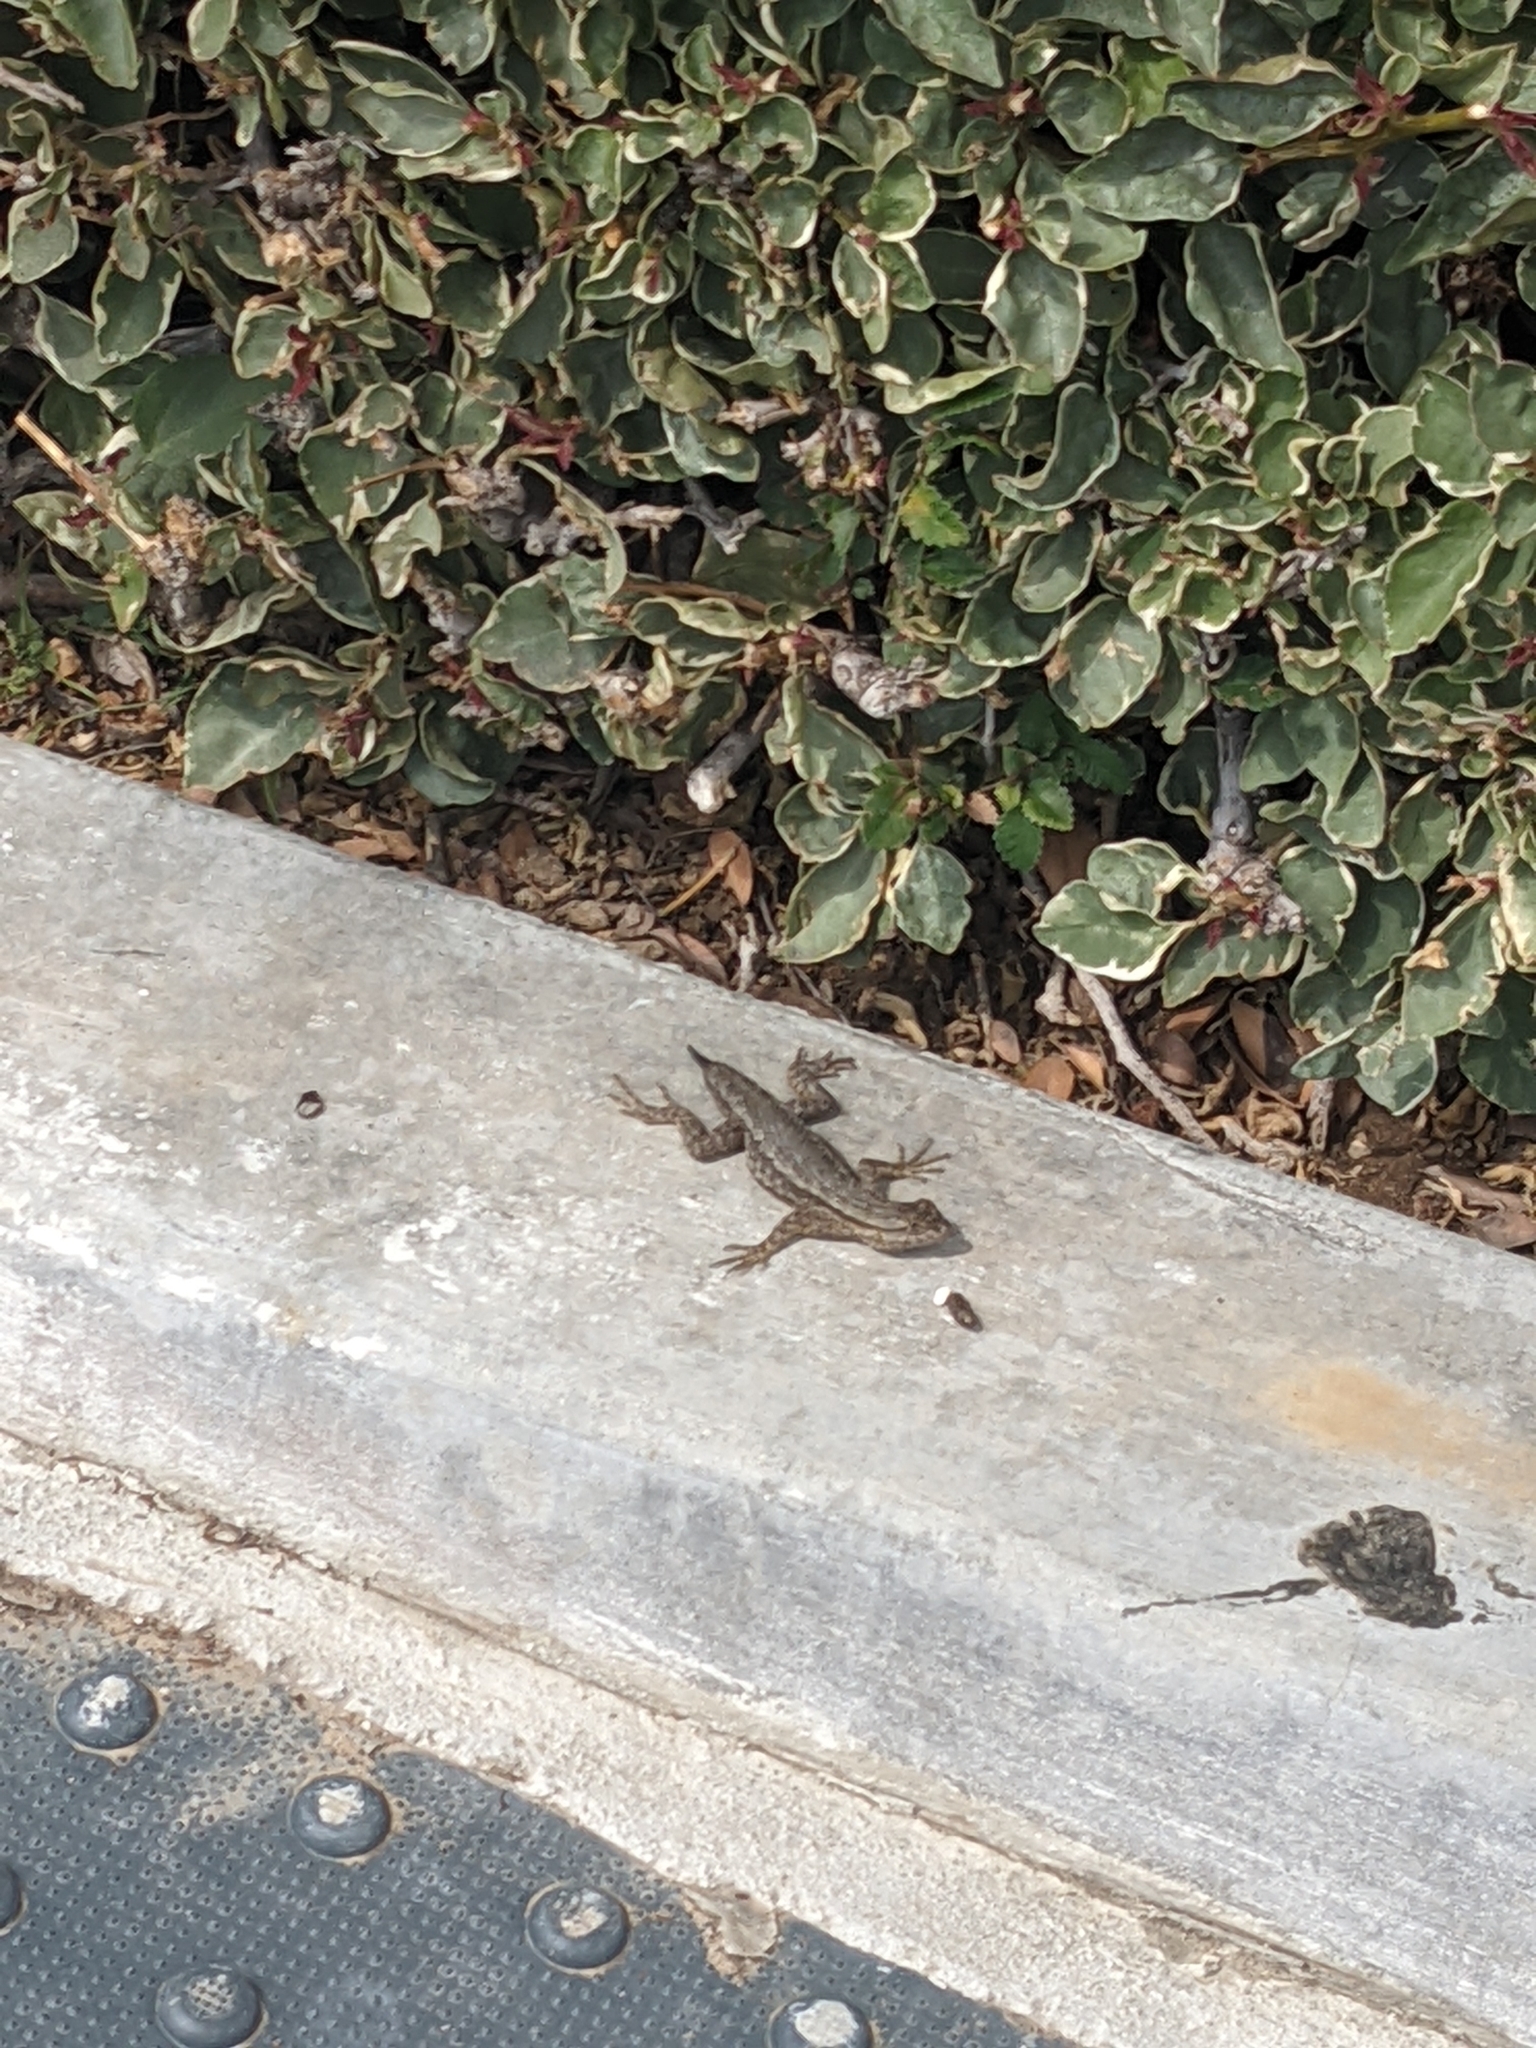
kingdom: Animalia
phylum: Chordata
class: Squamata
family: Phrynosomatidae
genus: Sceloporus
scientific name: Sceloporus occidentalis
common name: Western fence lizard
